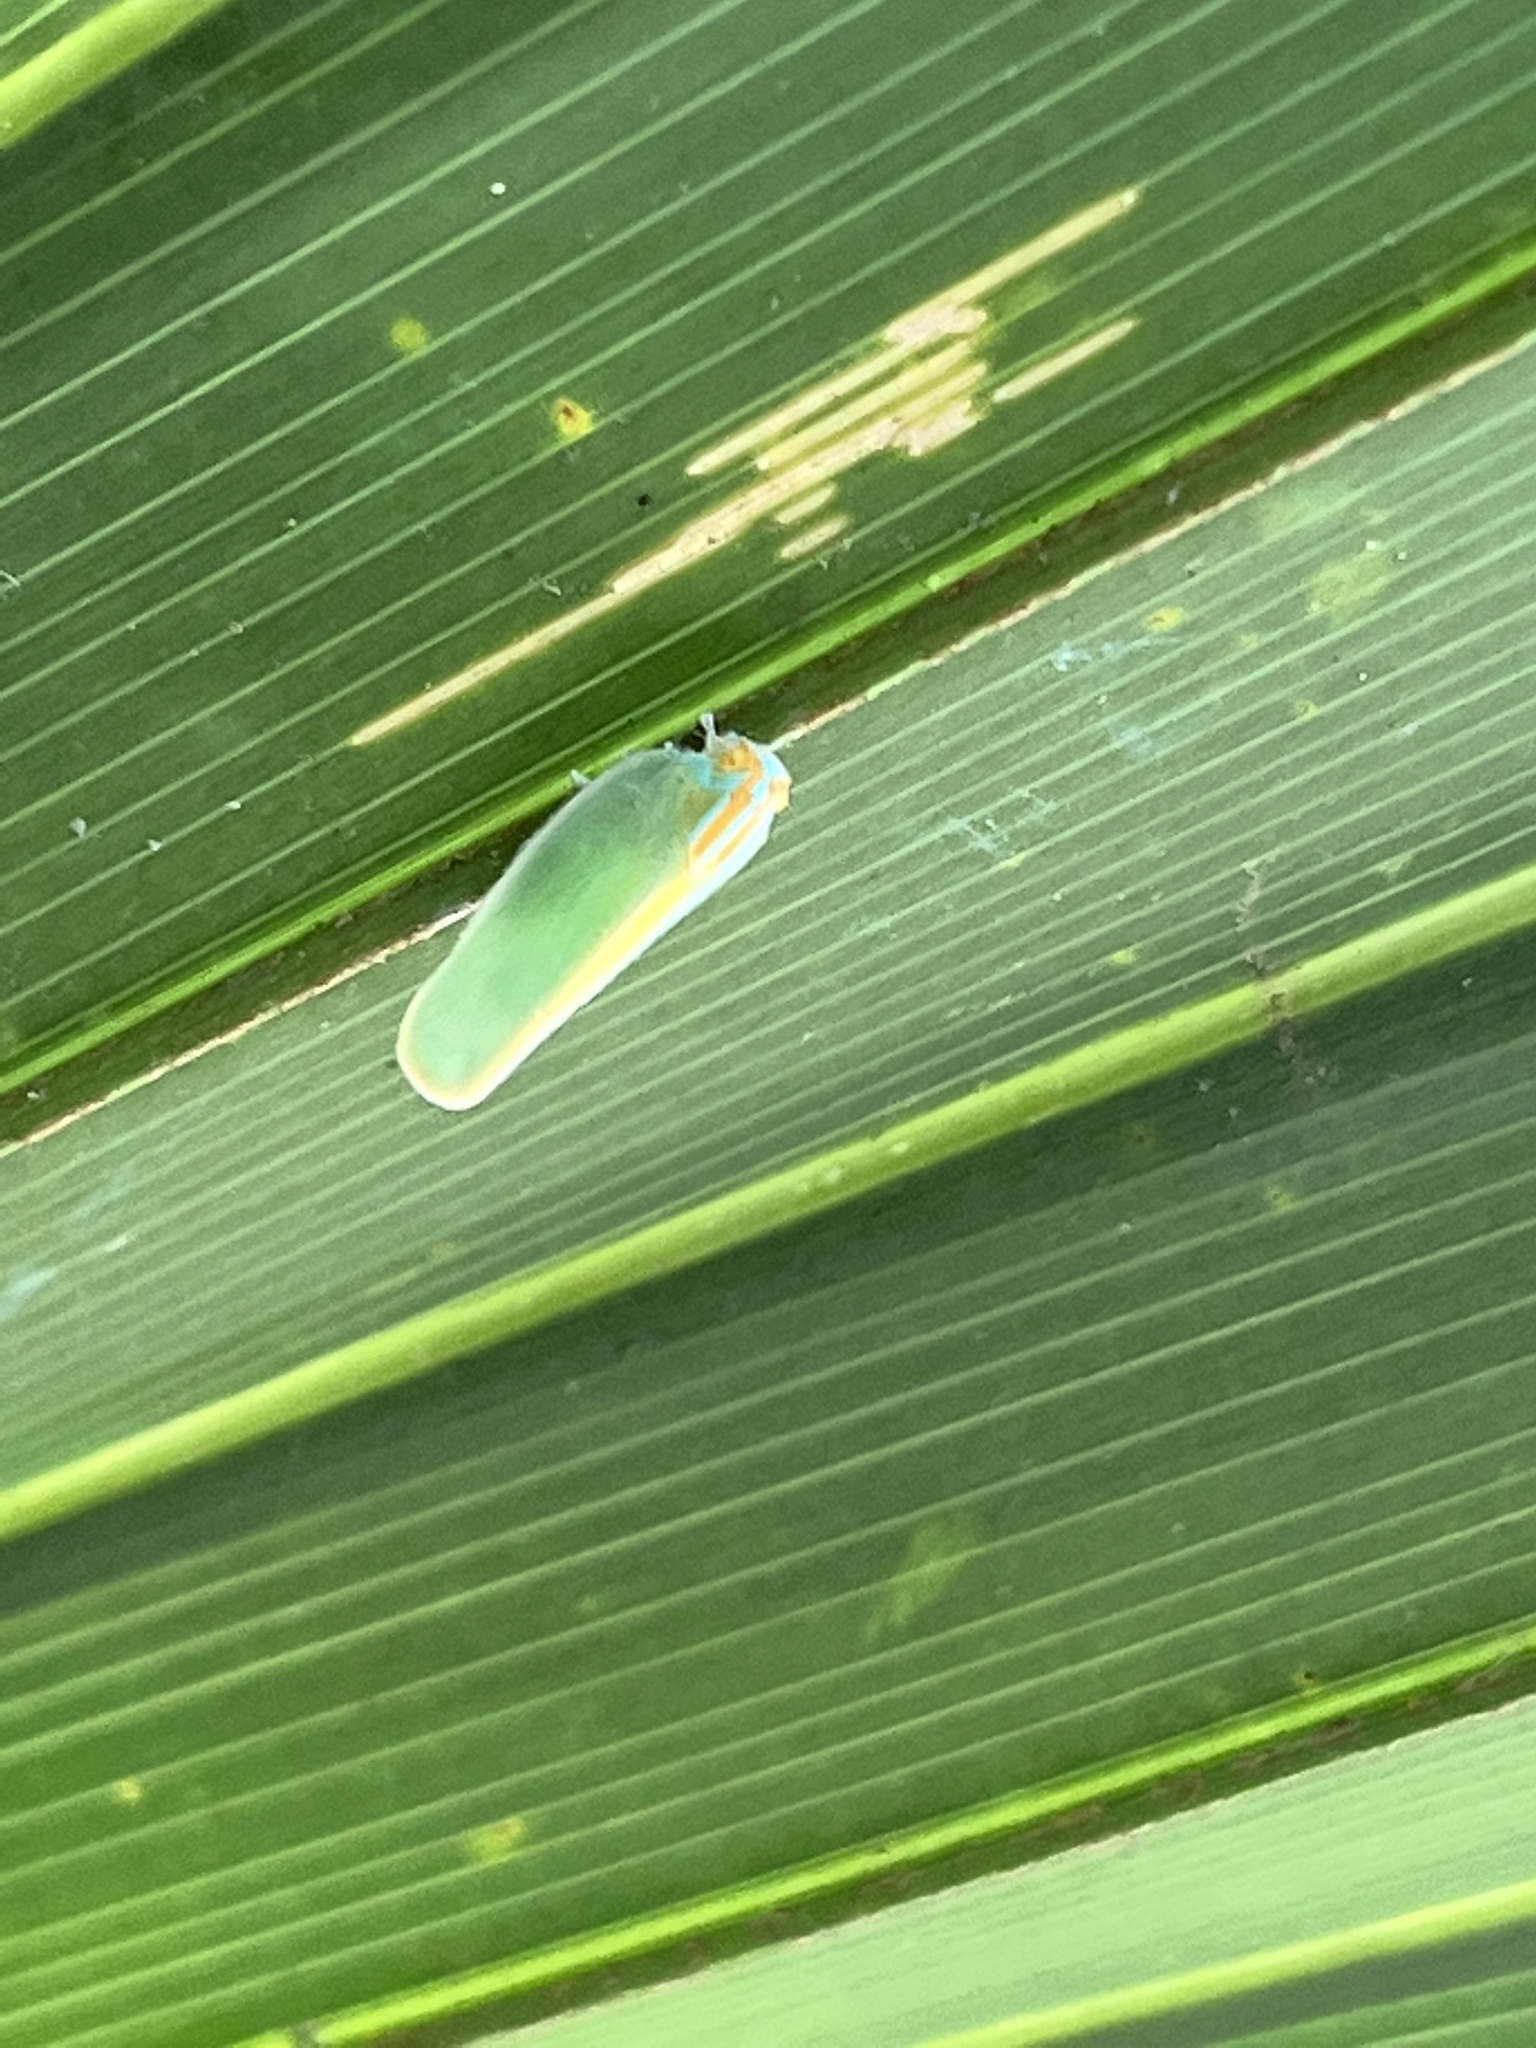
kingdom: Animalia
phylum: Arthropoda
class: Insecta
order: Hemiptera
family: Flatidae
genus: Ormenaria
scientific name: Ormenaria rufifascia
